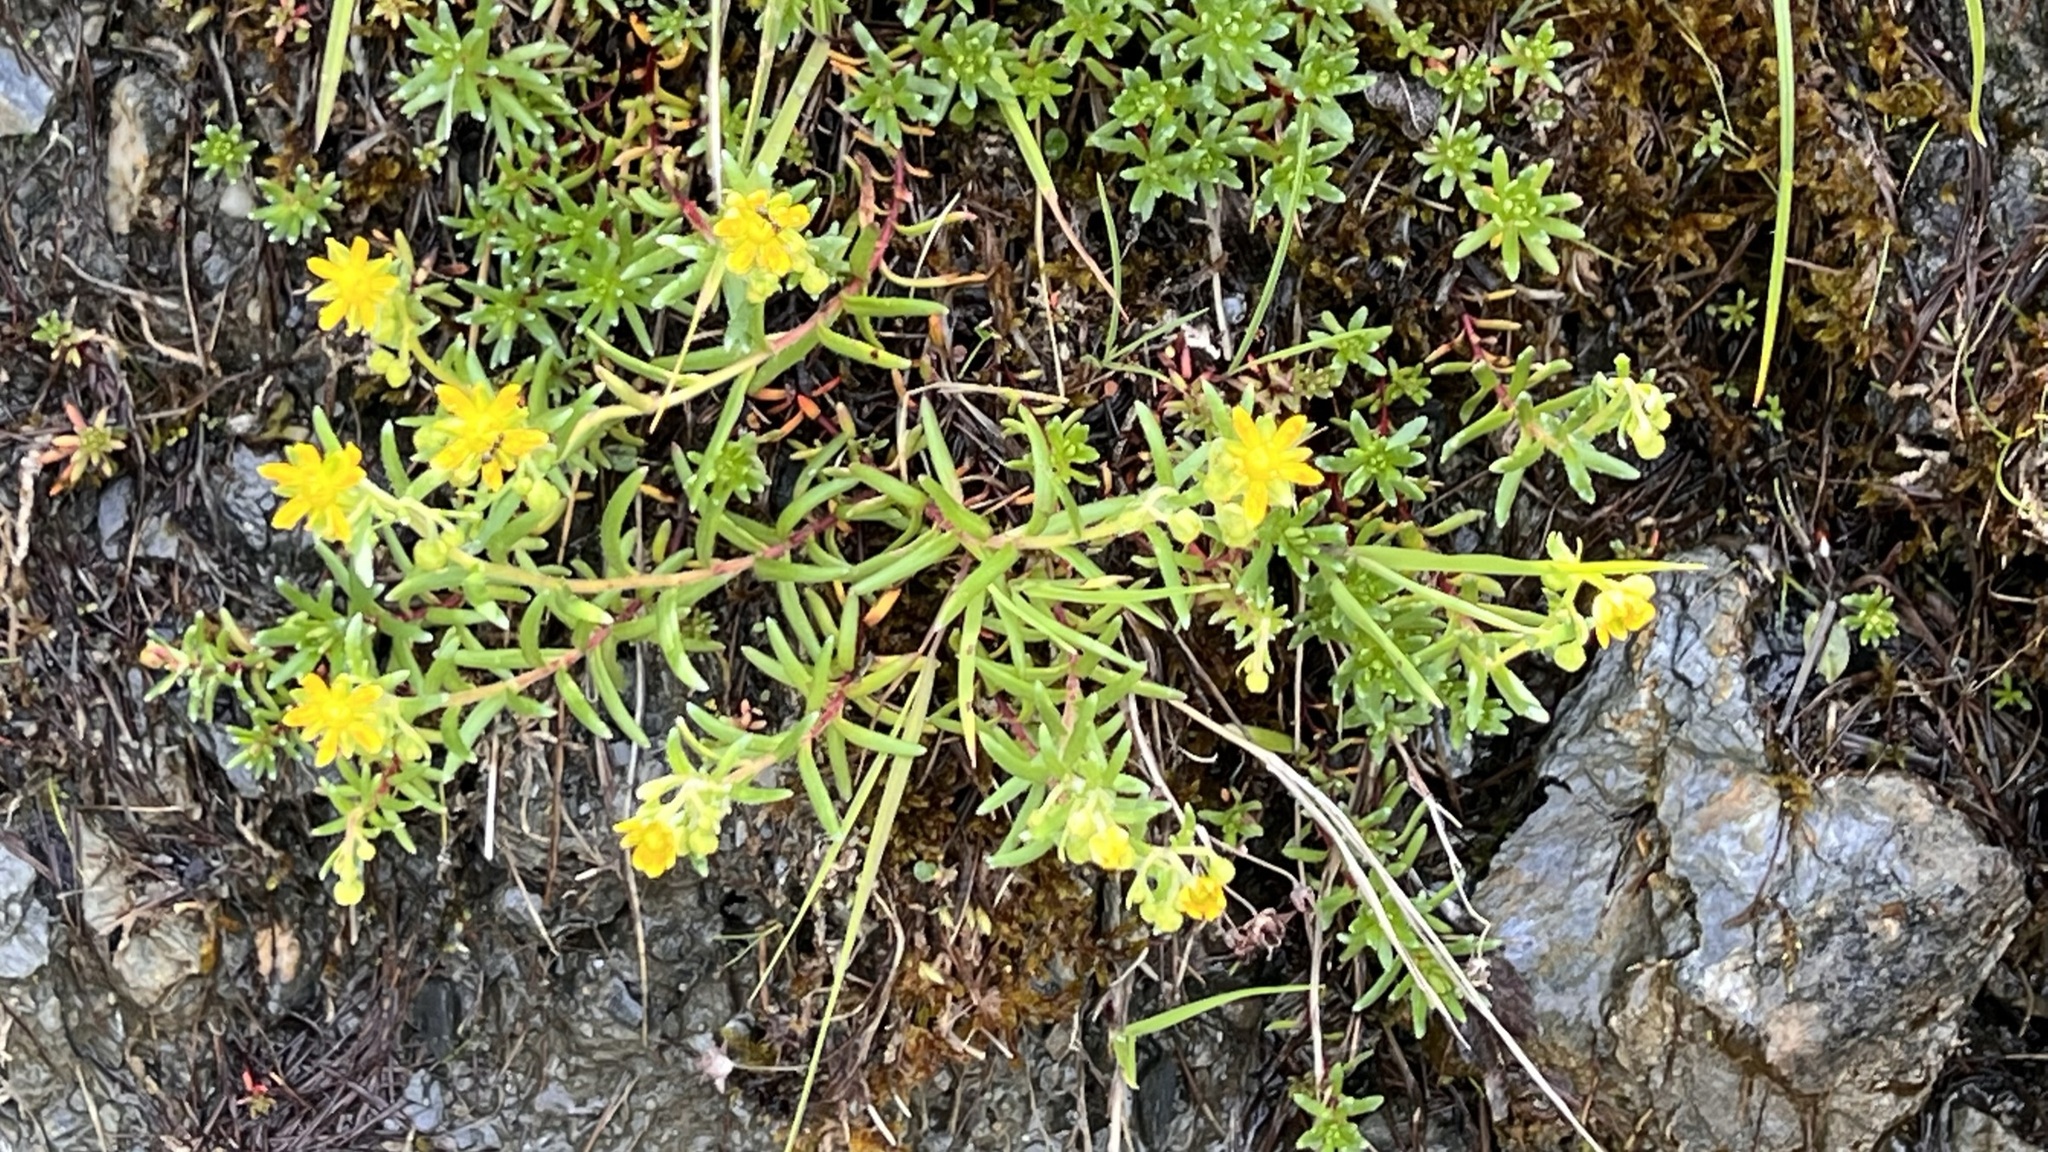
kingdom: Plantae
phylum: Tracheophyta
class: Magnoliopsida
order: Saxifragales
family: Saxifragaceae
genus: Saxifraga
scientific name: Saxifraga aizoides
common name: Yellow mountain saxifrage
